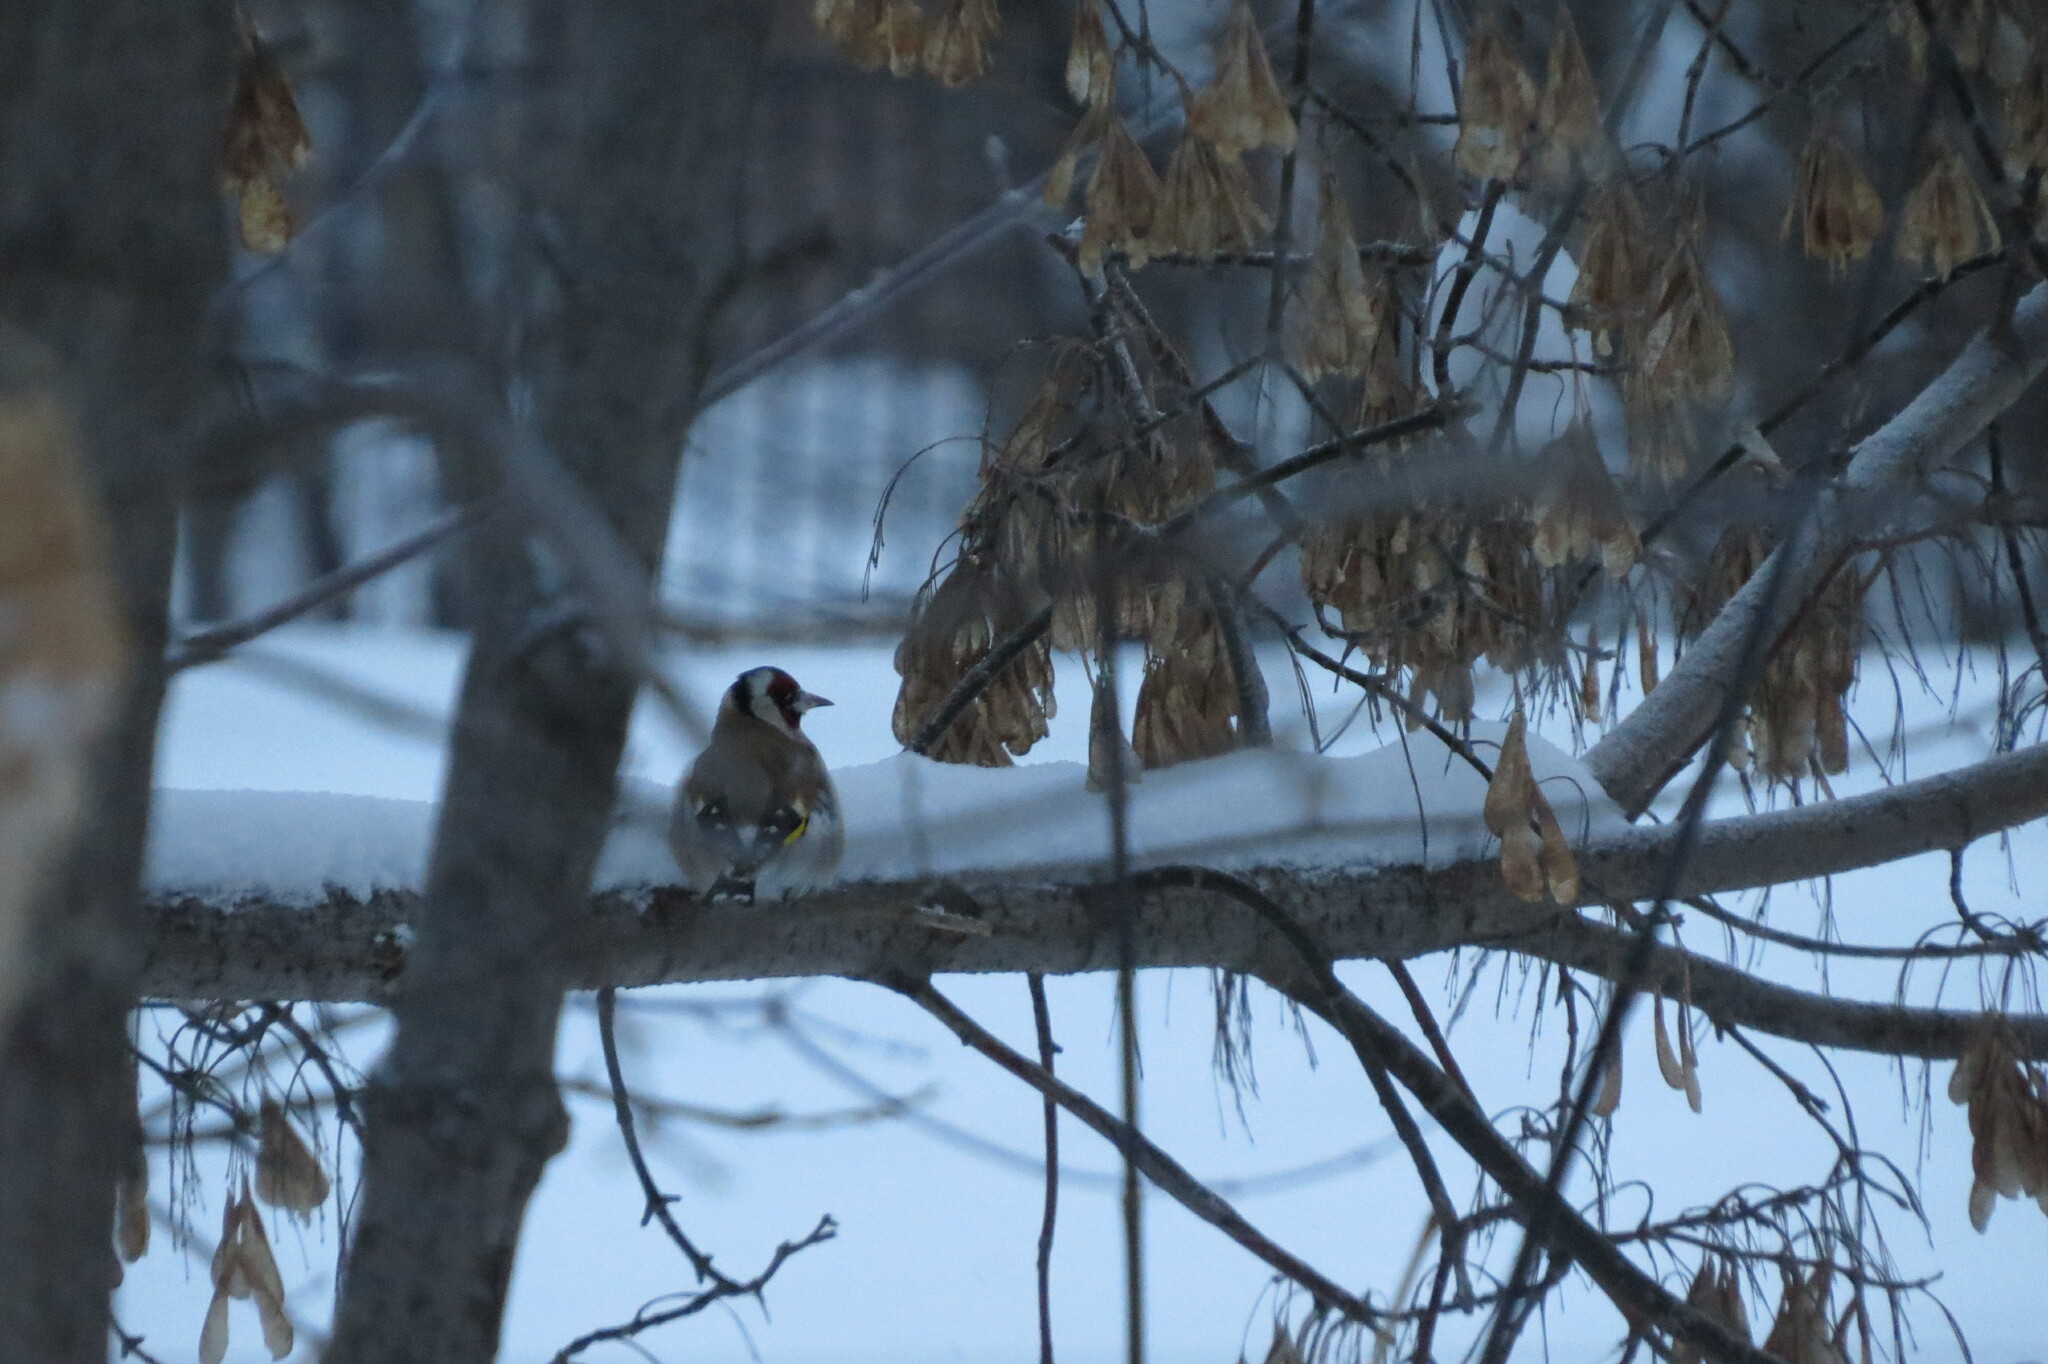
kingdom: Animalia
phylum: Chordata
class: Aves
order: Passeriformes
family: Fringillidae
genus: Carduelis
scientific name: Carduelis carduelis
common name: European goldfinch
